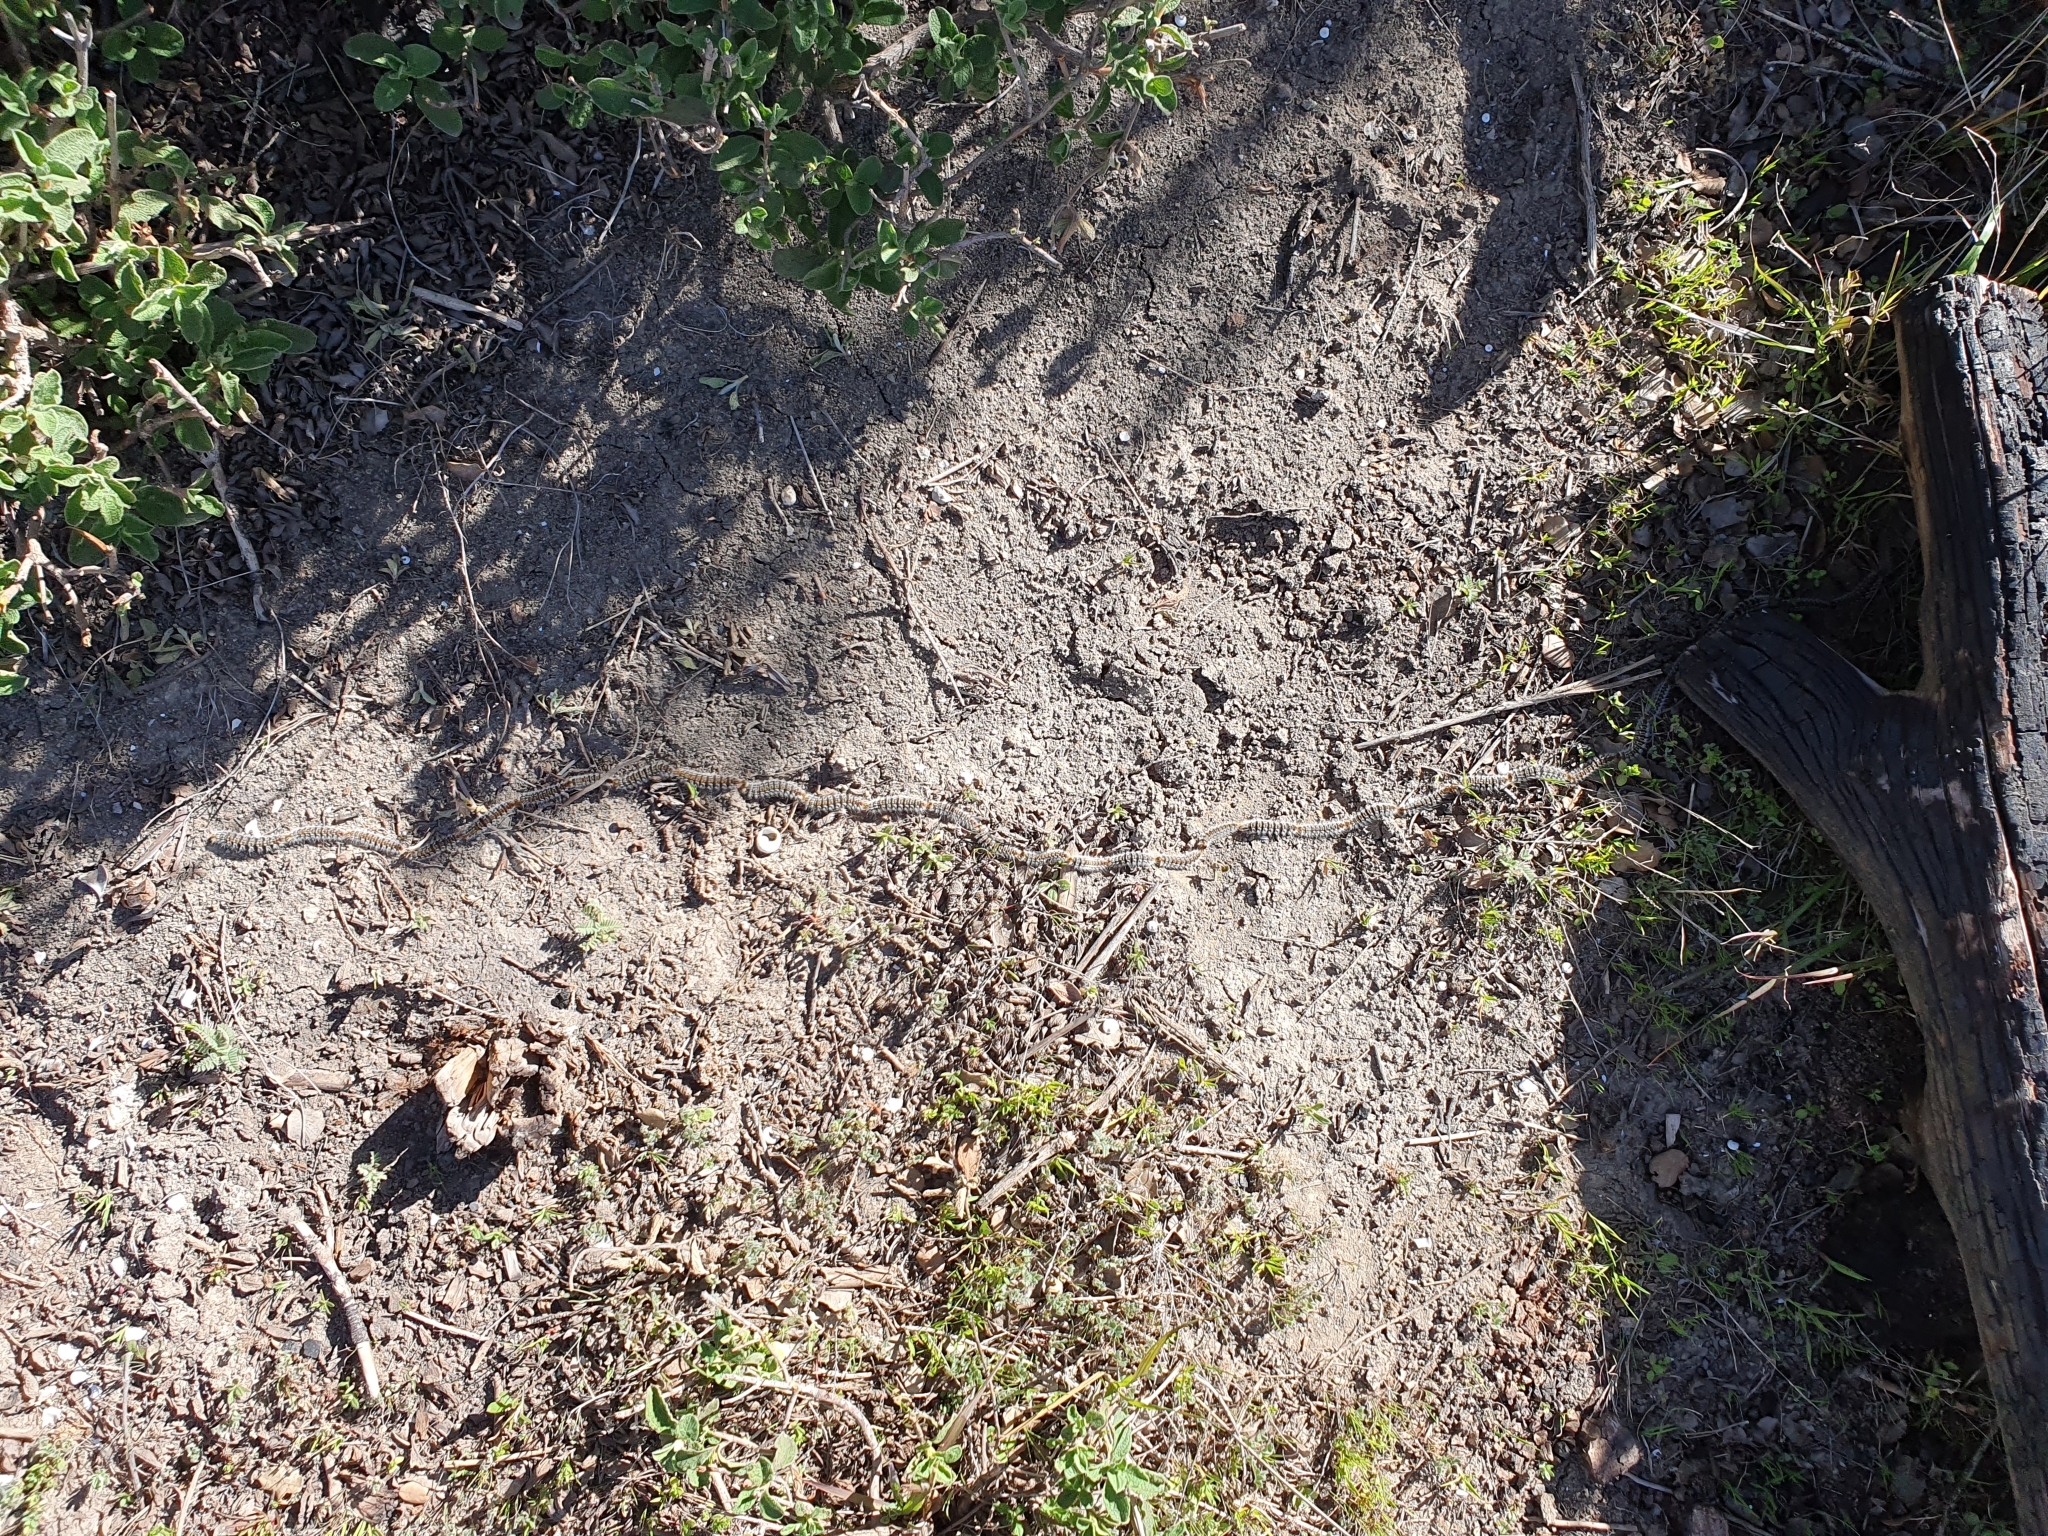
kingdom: Animalia
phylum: Arthropoda
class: Insecta
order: Lepidoptera
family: Notodontidae
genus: Thaumetopoea
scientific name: Thaumetopoea pityocampa
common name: Pine processionary
